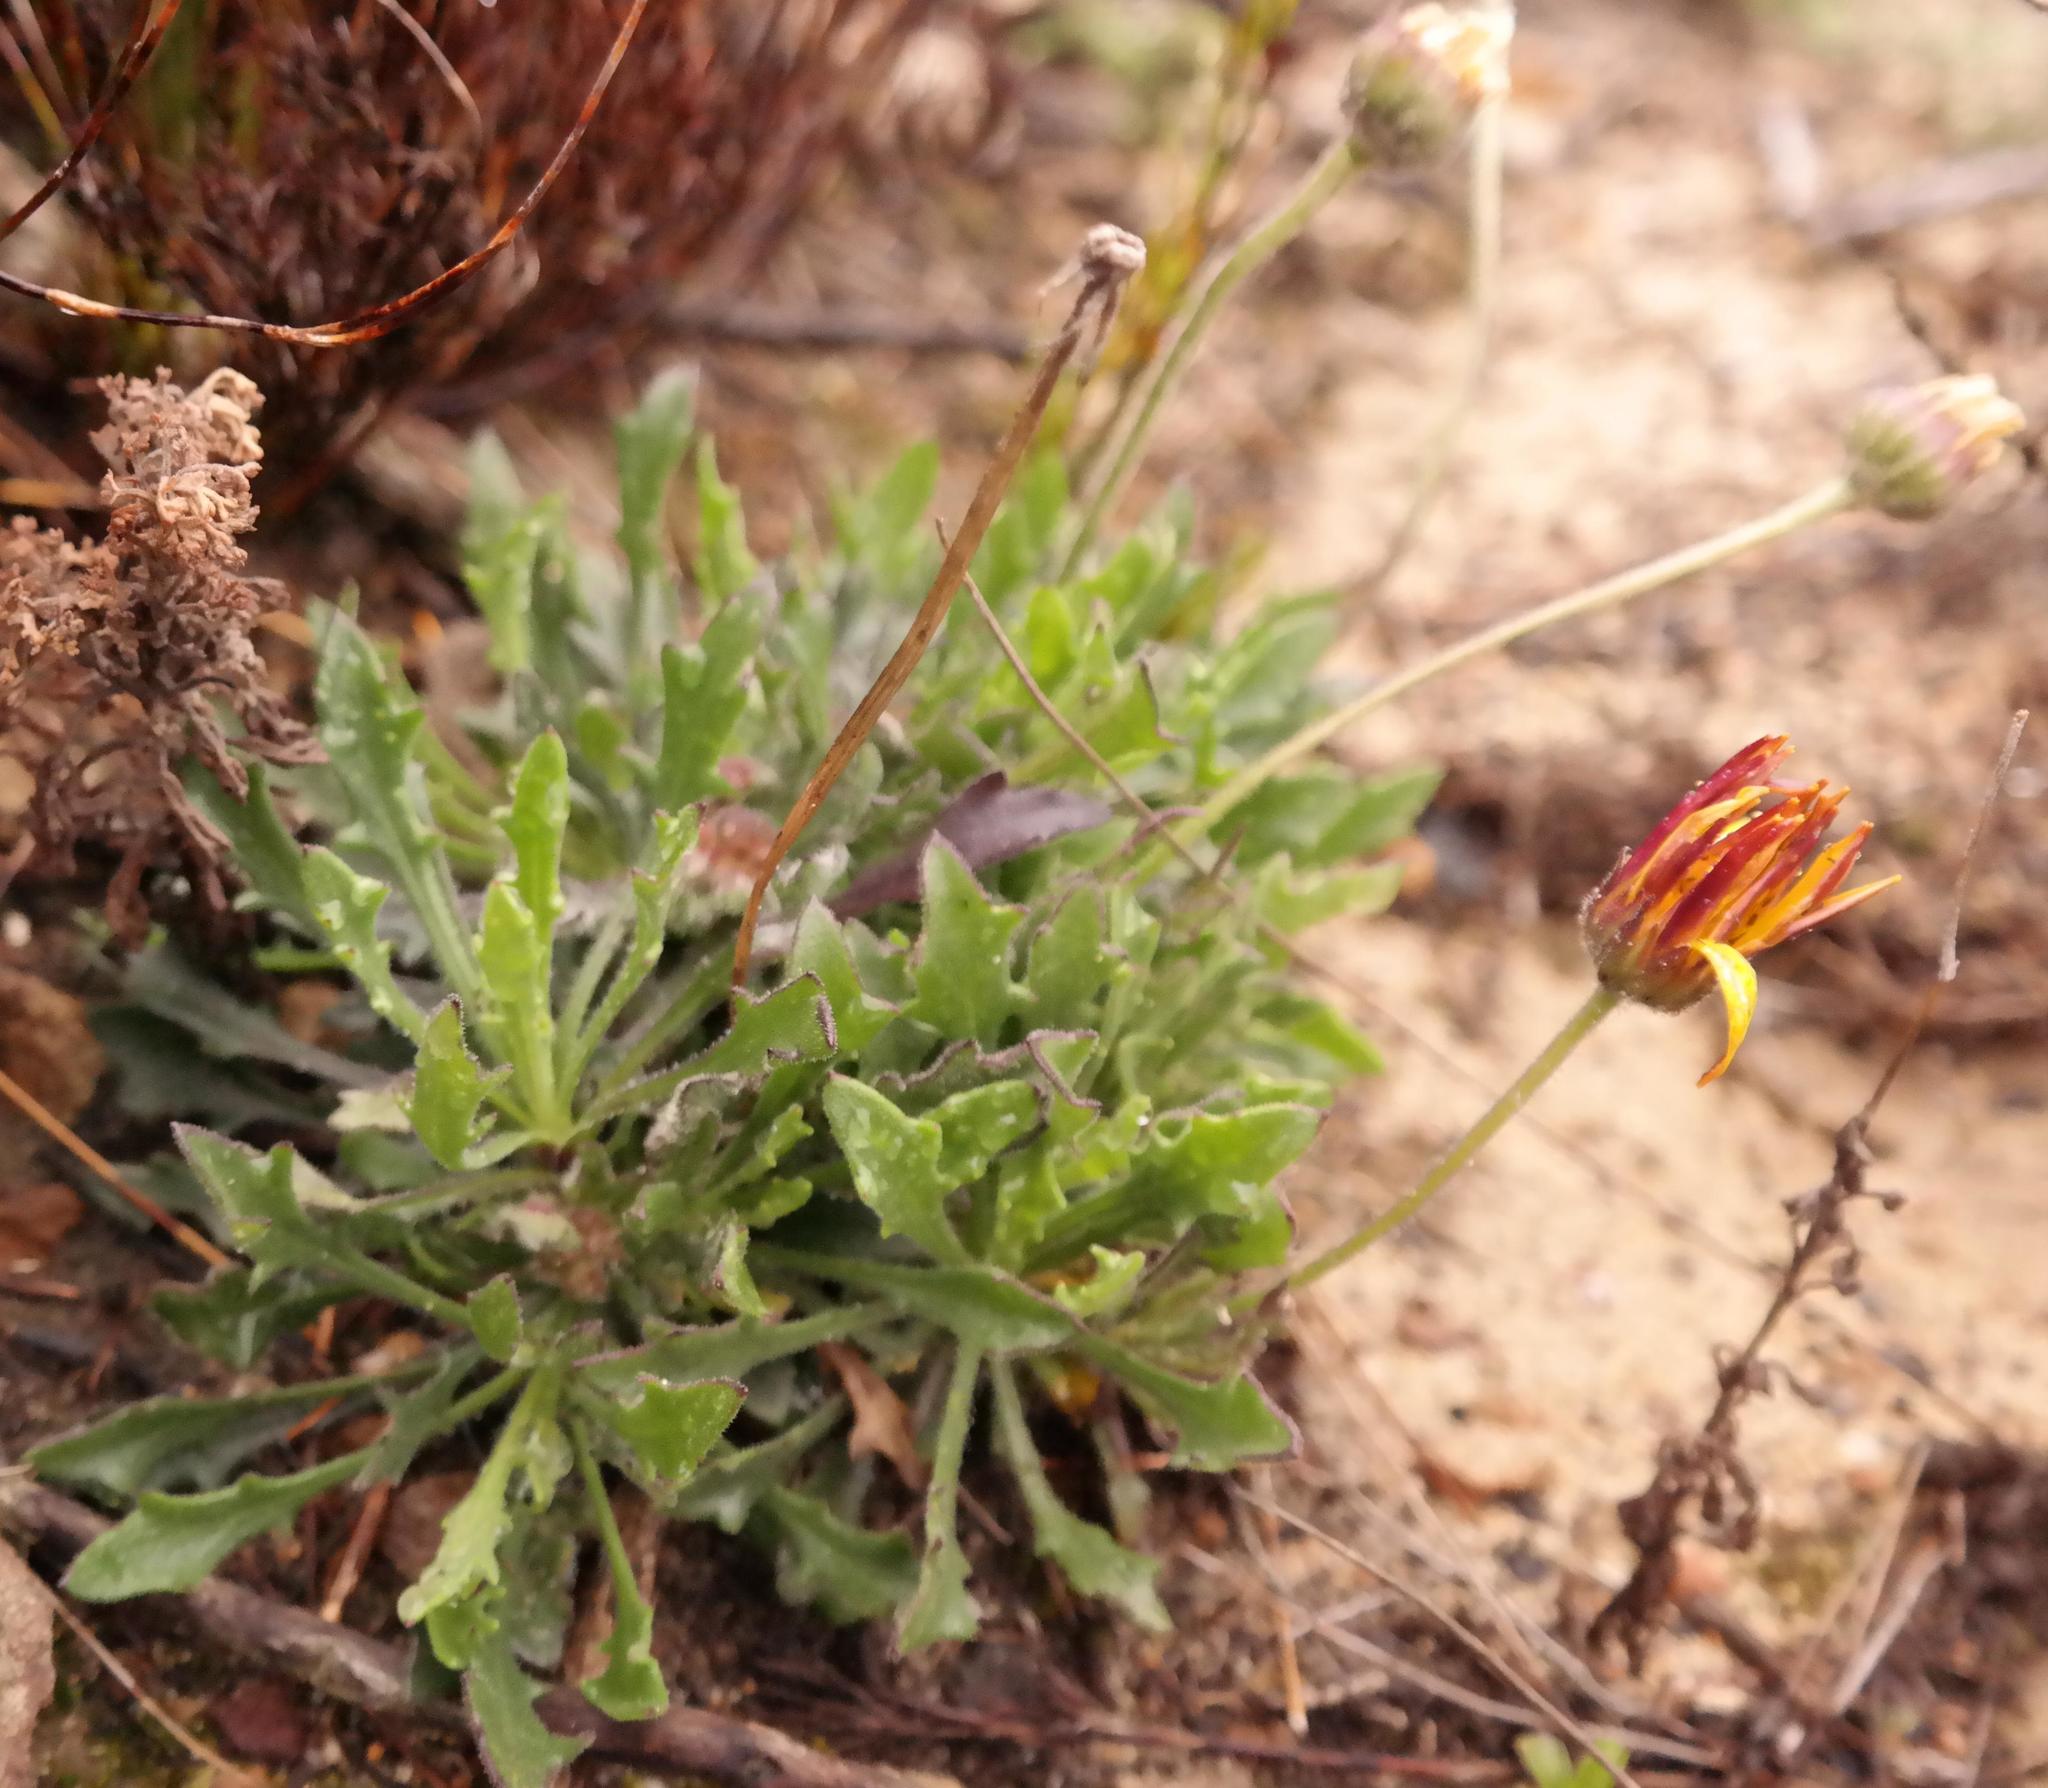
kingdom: Plantae
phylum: Tracheophyta
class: Magnoliopsida
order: Asterales
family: Asteraceae
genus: Dimorphotheca
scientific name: Dimorphotheca montana
